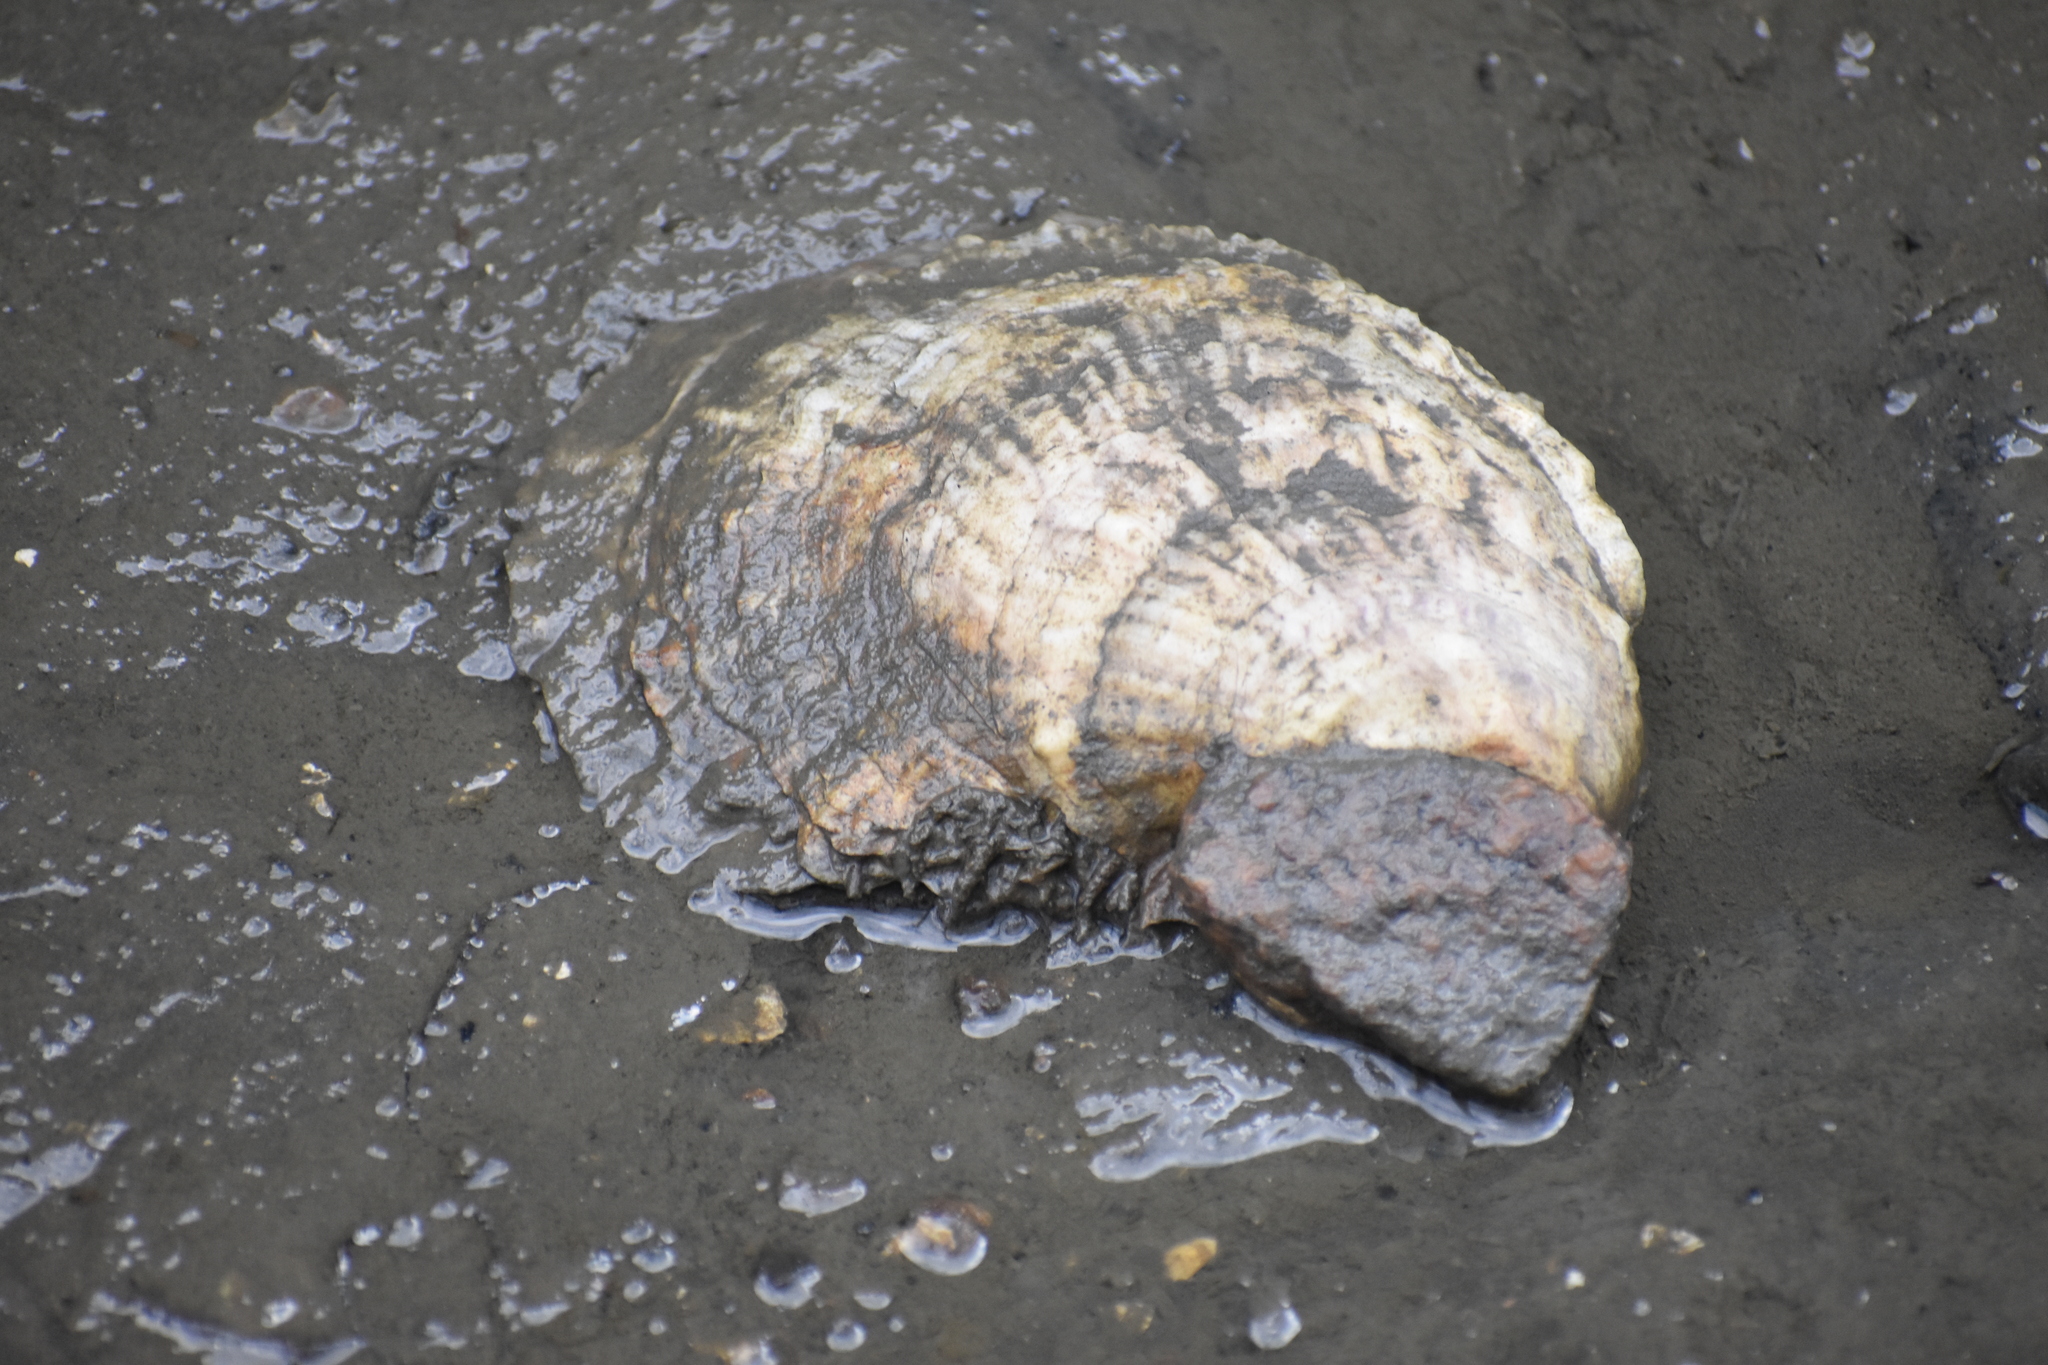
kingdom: Animalia
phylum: Mollusca
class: Bivalvia
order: Ostreida
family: Ostreidae
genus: Crassostrea
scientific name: Crassostrea virginica
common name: American oyster
